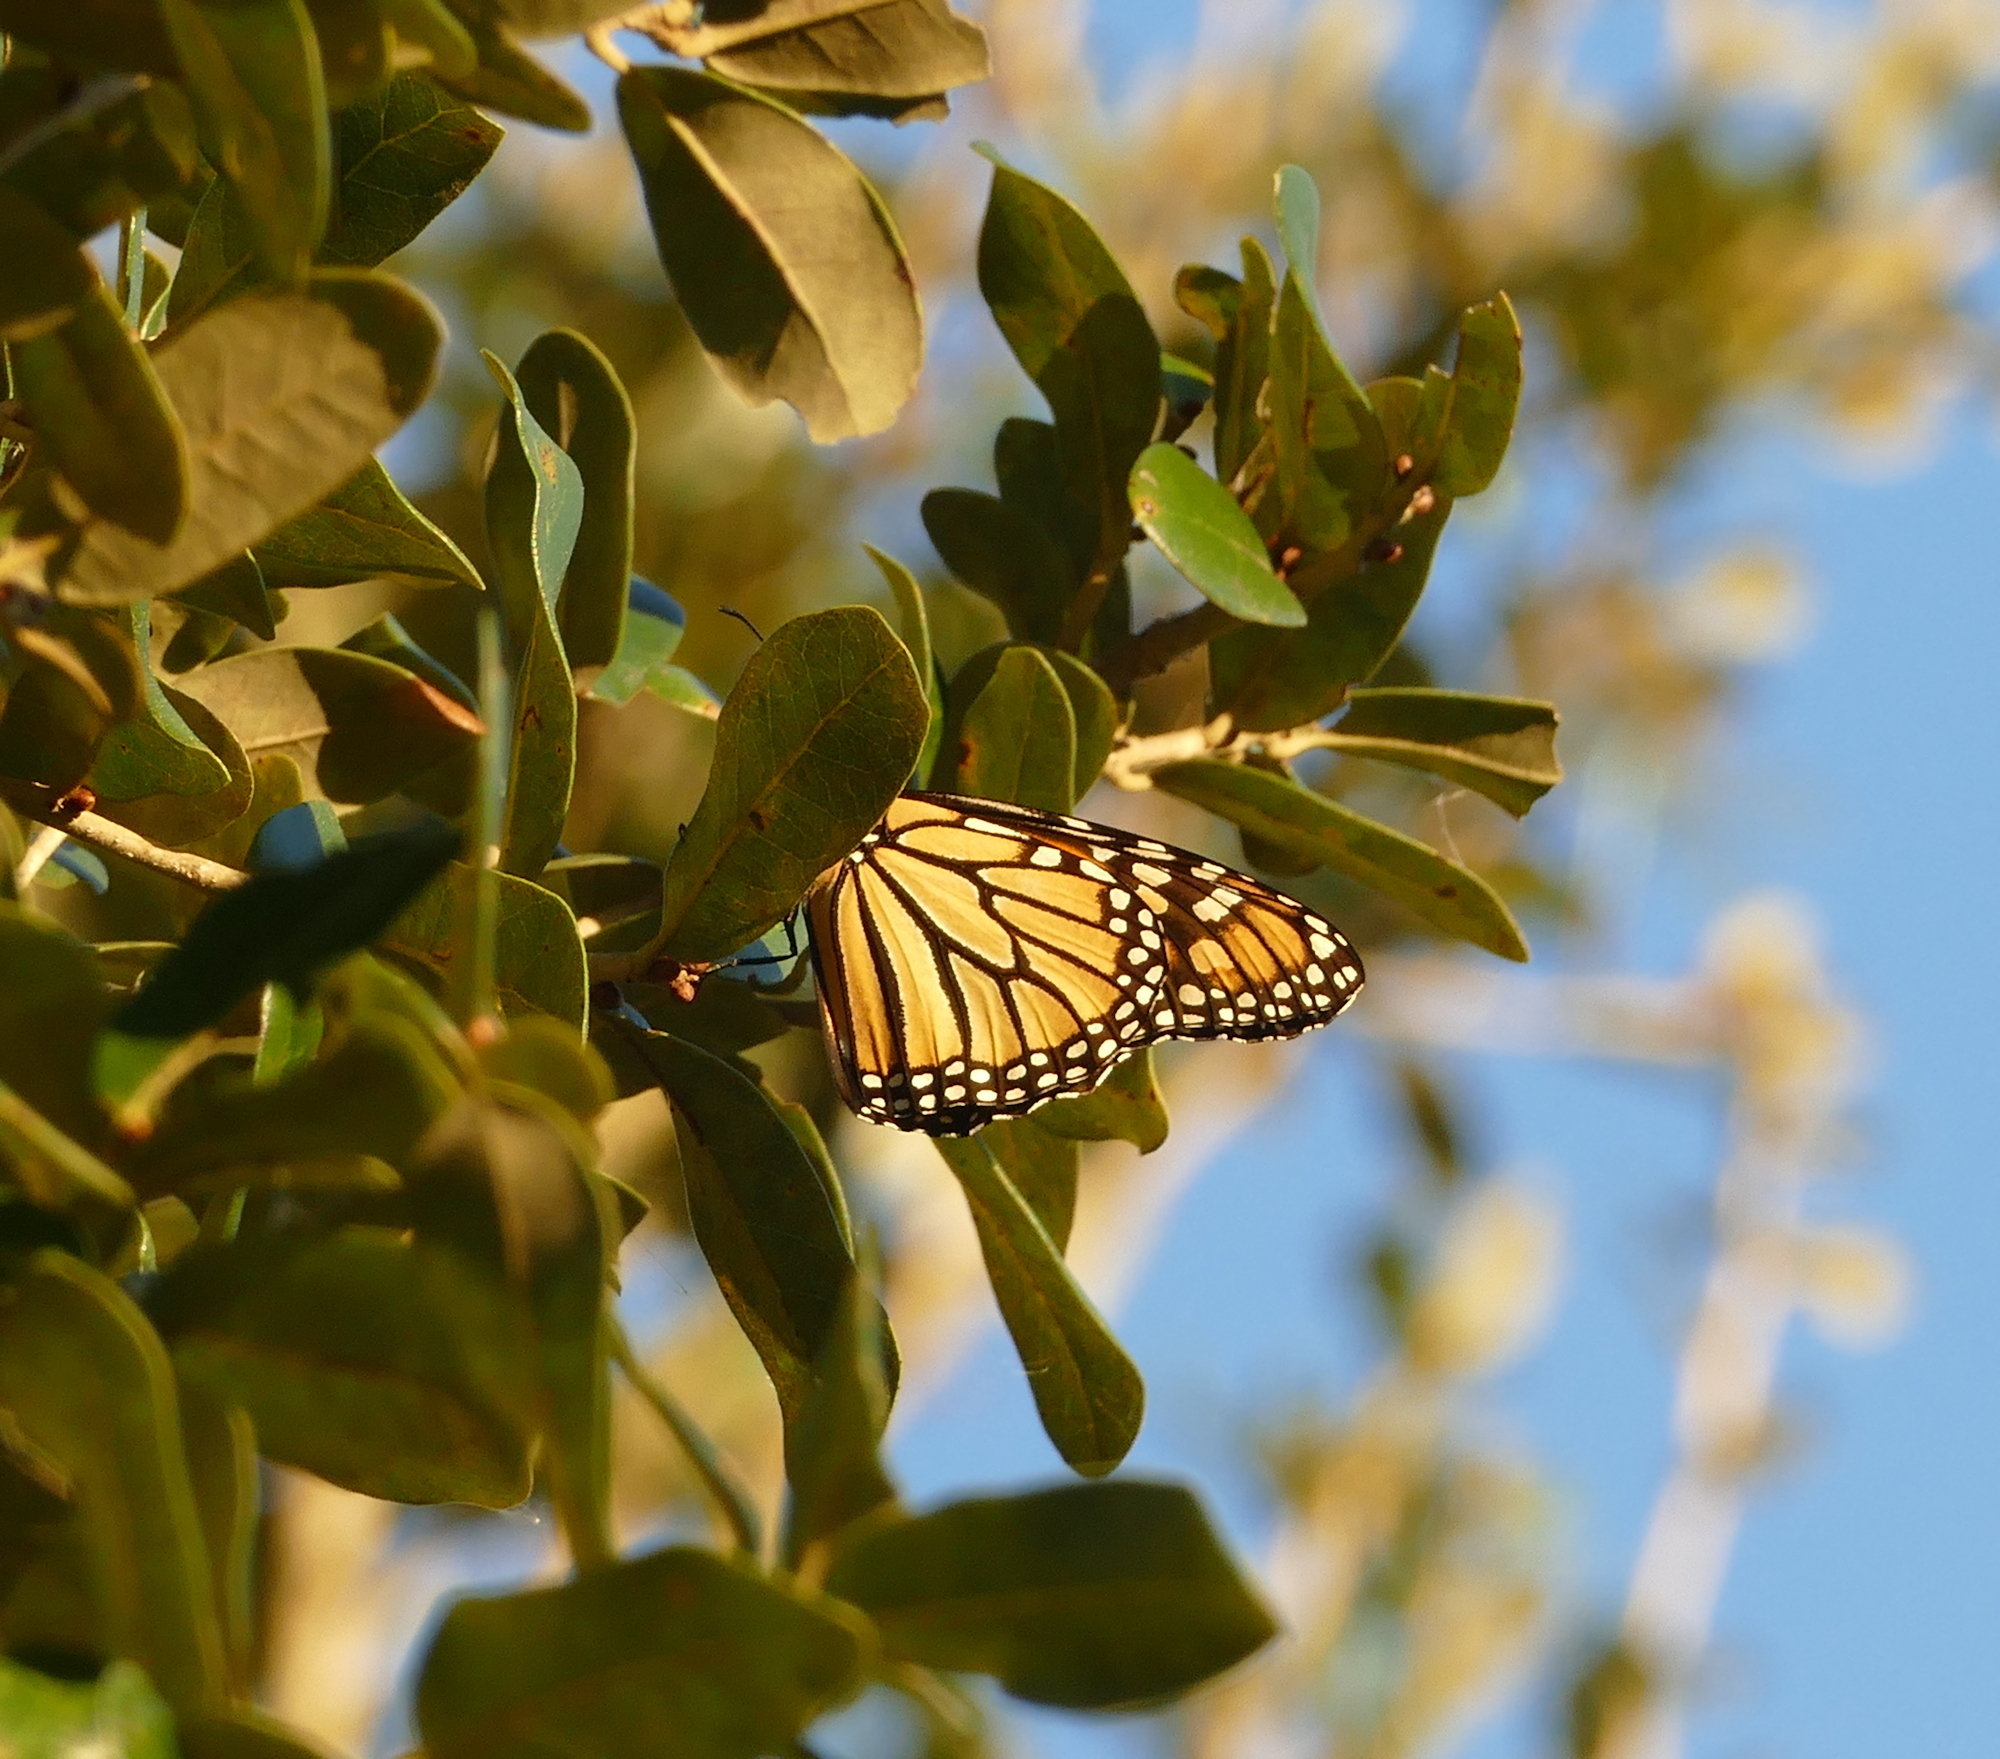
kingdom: Animalia
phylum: Arthropoda
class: Insecta
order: Lepidoptera
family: Nymphalidae
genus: Danaus
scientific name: Danaus plexippus
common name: Monarch
